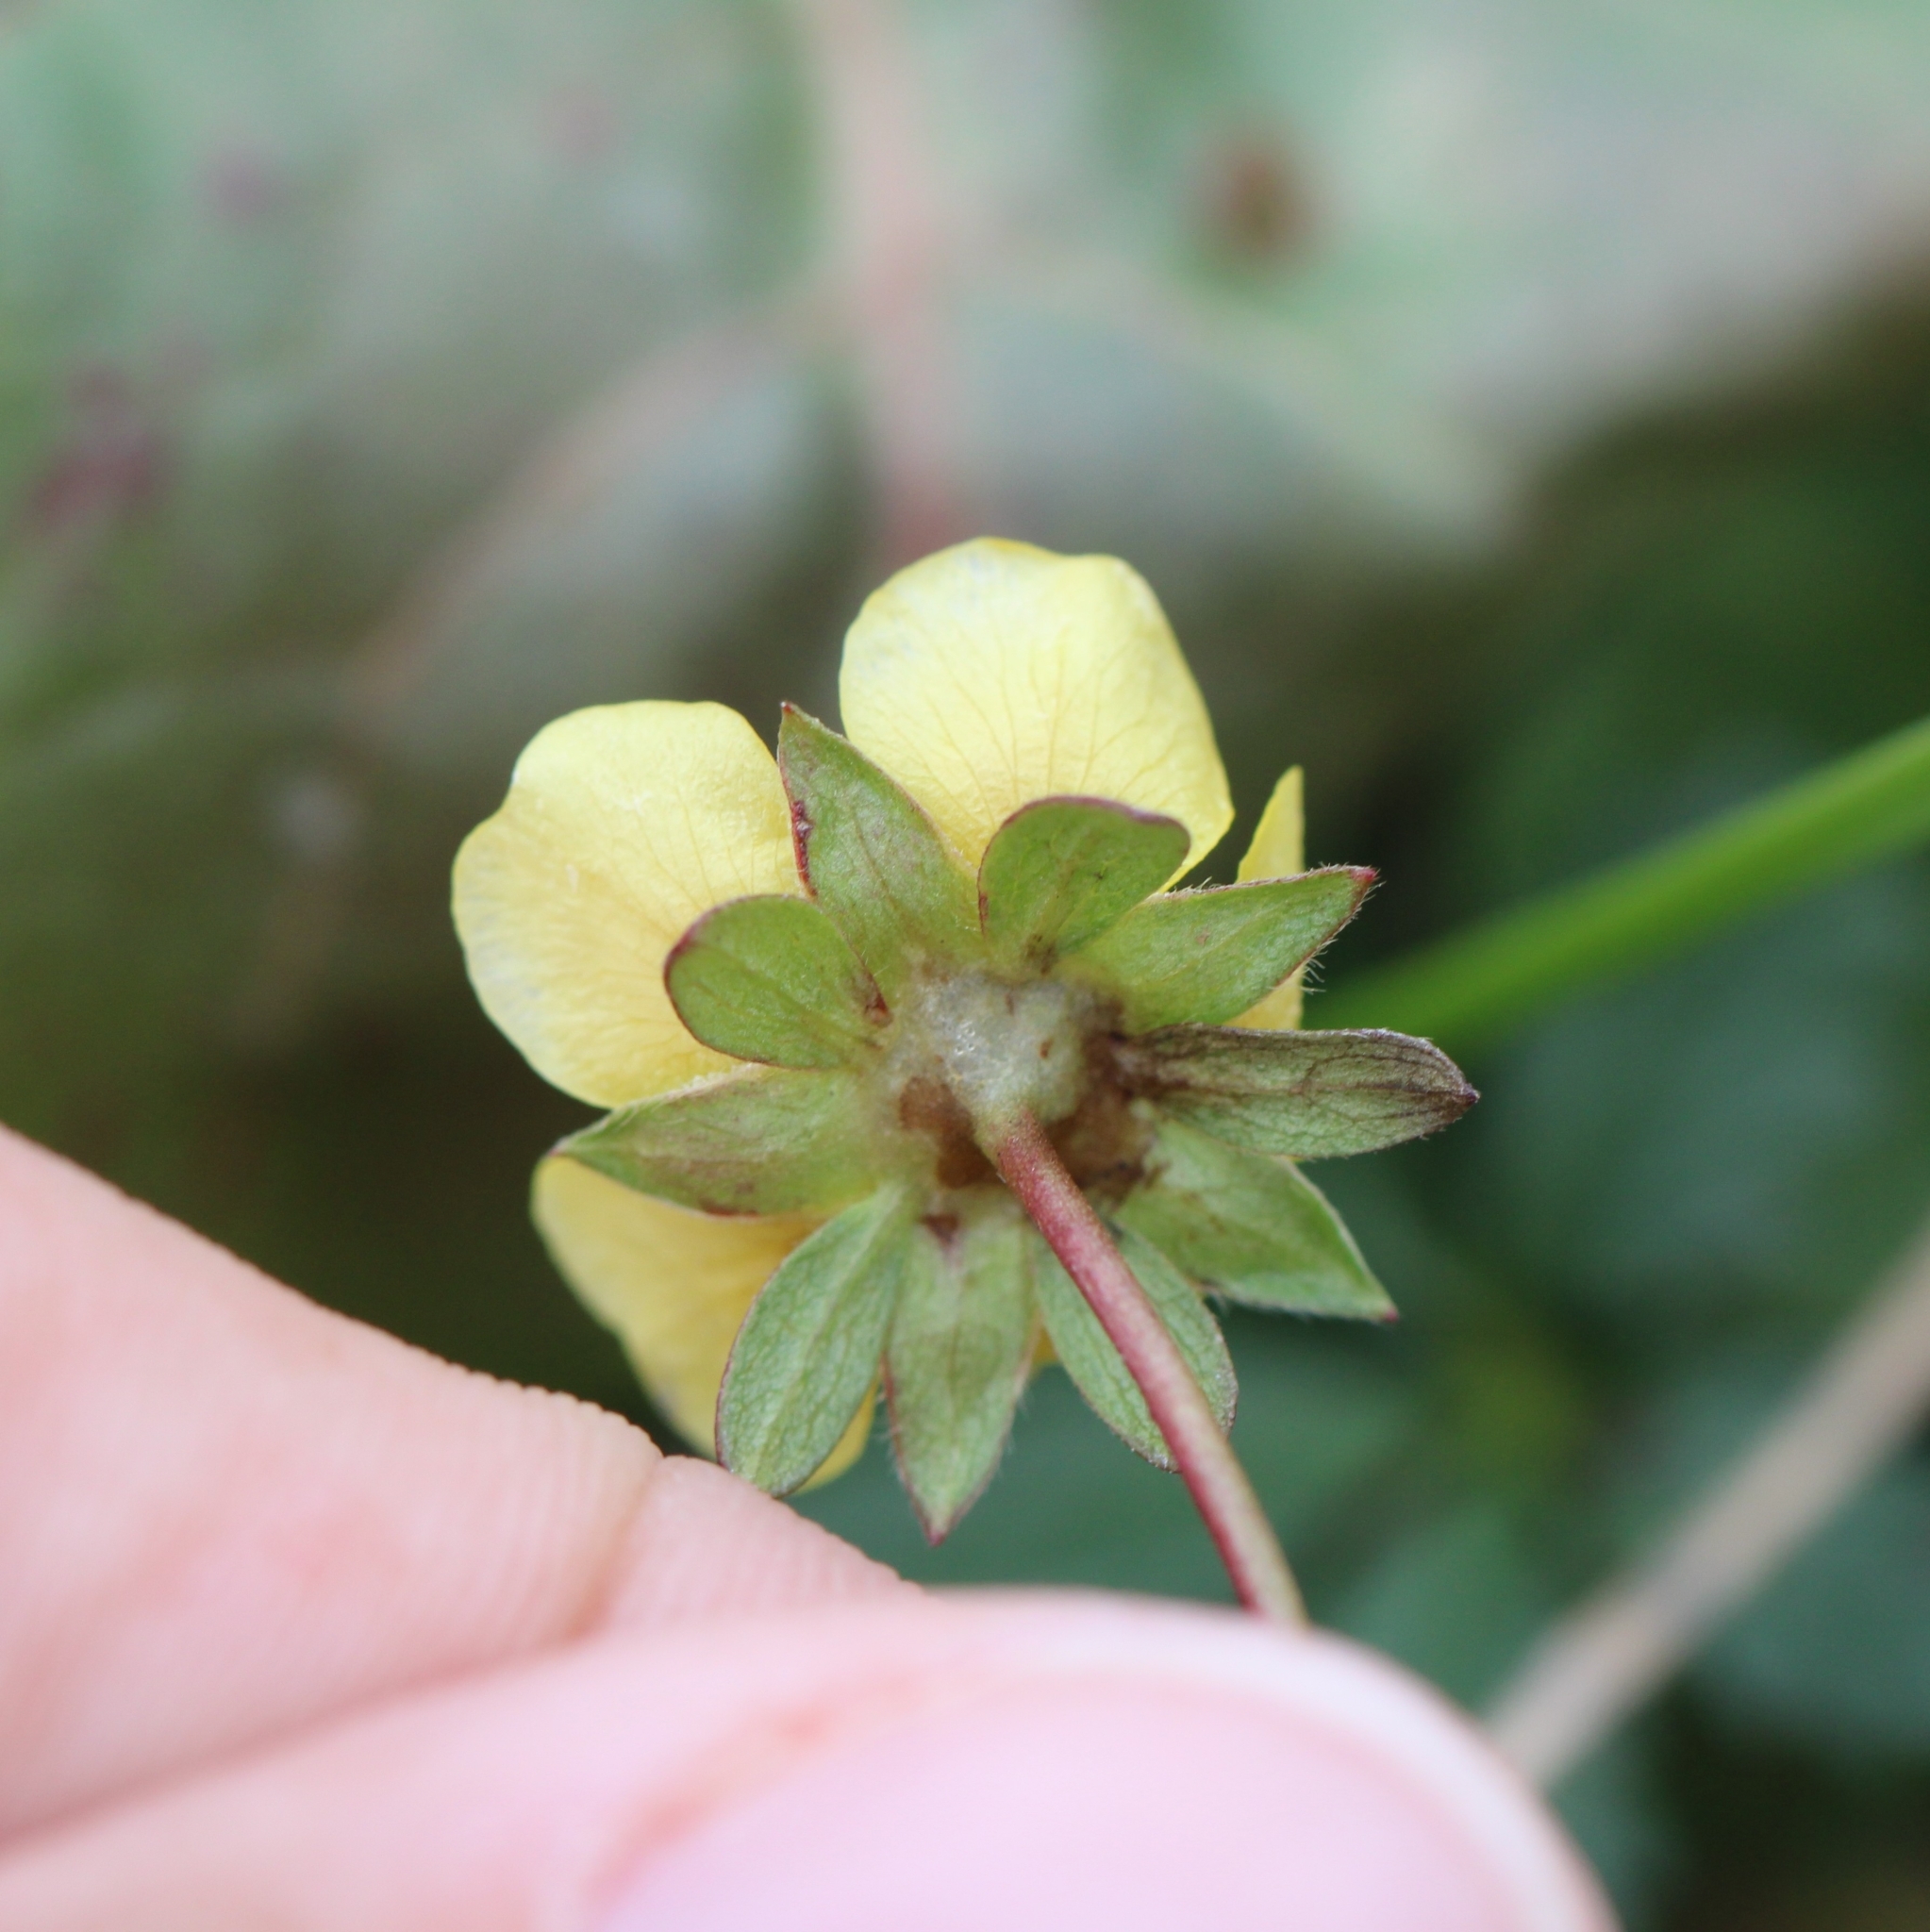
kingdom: Plantae
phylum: Tracheophyta
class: Magnoliopsida
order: Rosales
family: Rosaceae
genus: Potentilla
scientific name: Potentilla reptans
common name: Creeping cinquefoil
